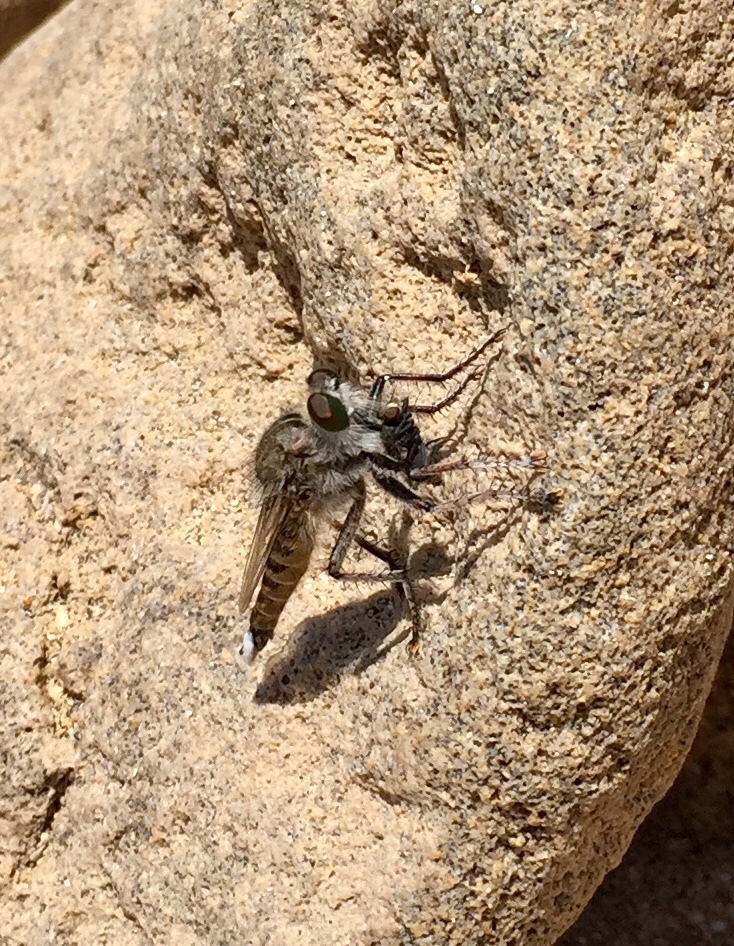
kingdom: Animalia
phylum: Arthropoda
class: Insecta
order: Diptera
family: Asilidae
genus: Promachus
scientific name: Promachus consanguineus
